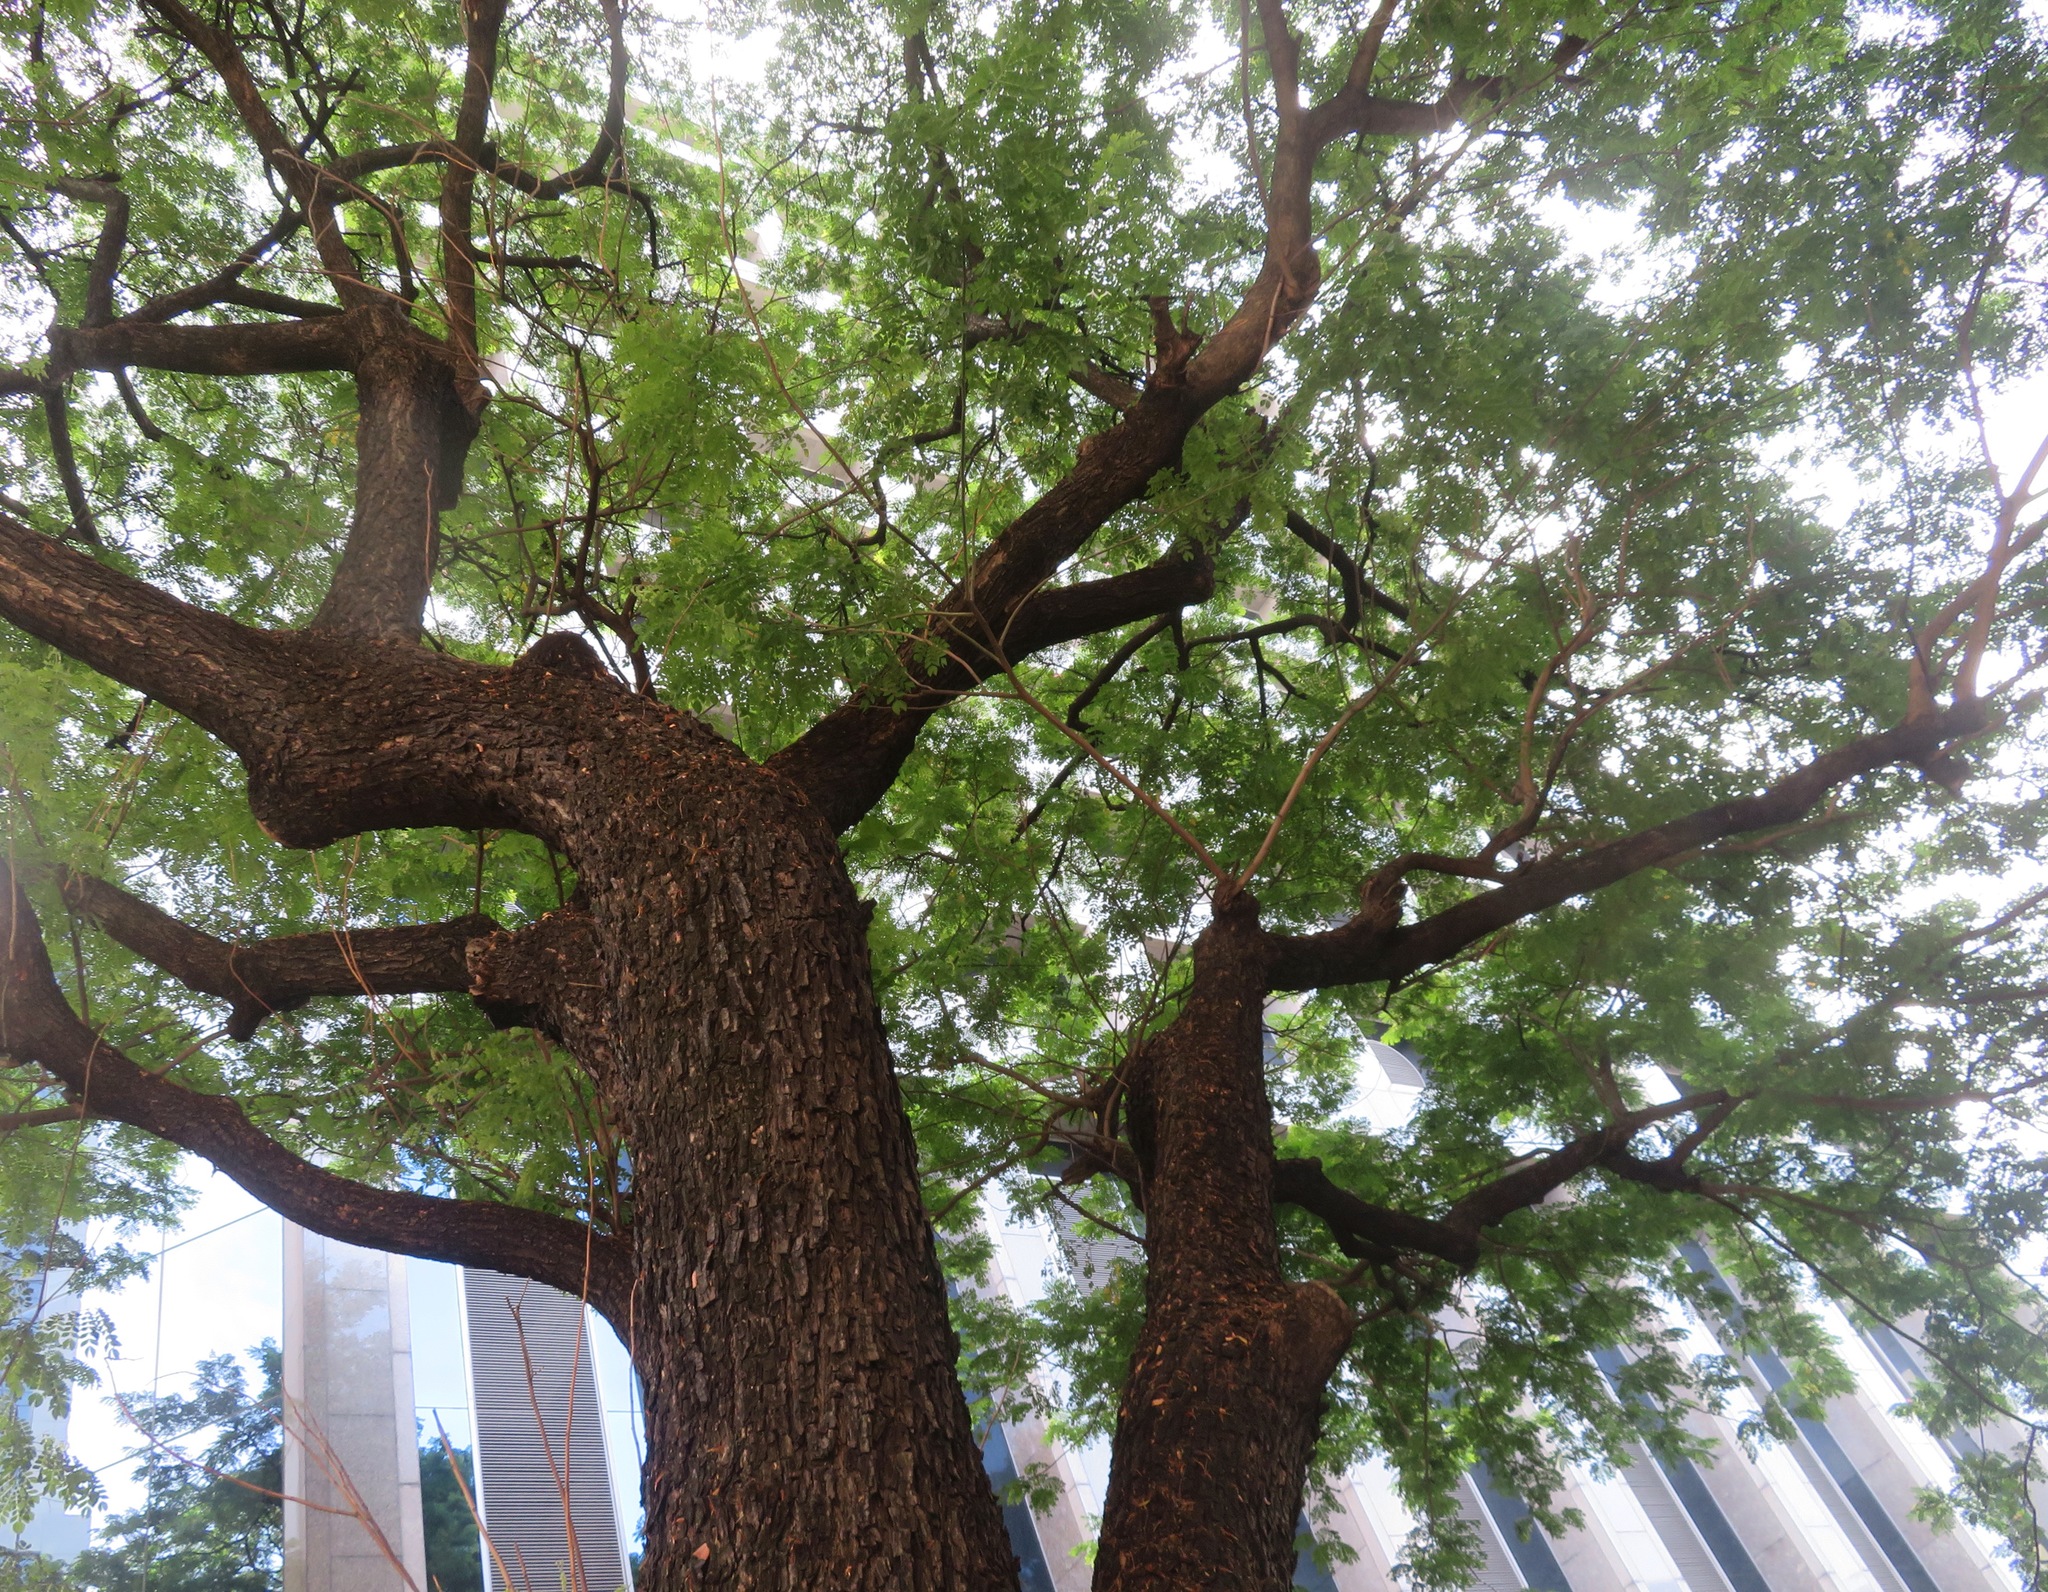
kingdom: Plantae
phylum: Tracheophyta
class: Magnoliopsida
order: Fabales
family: Fabaceae
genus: Samanea
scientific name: Samanea saman
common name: Raintree
